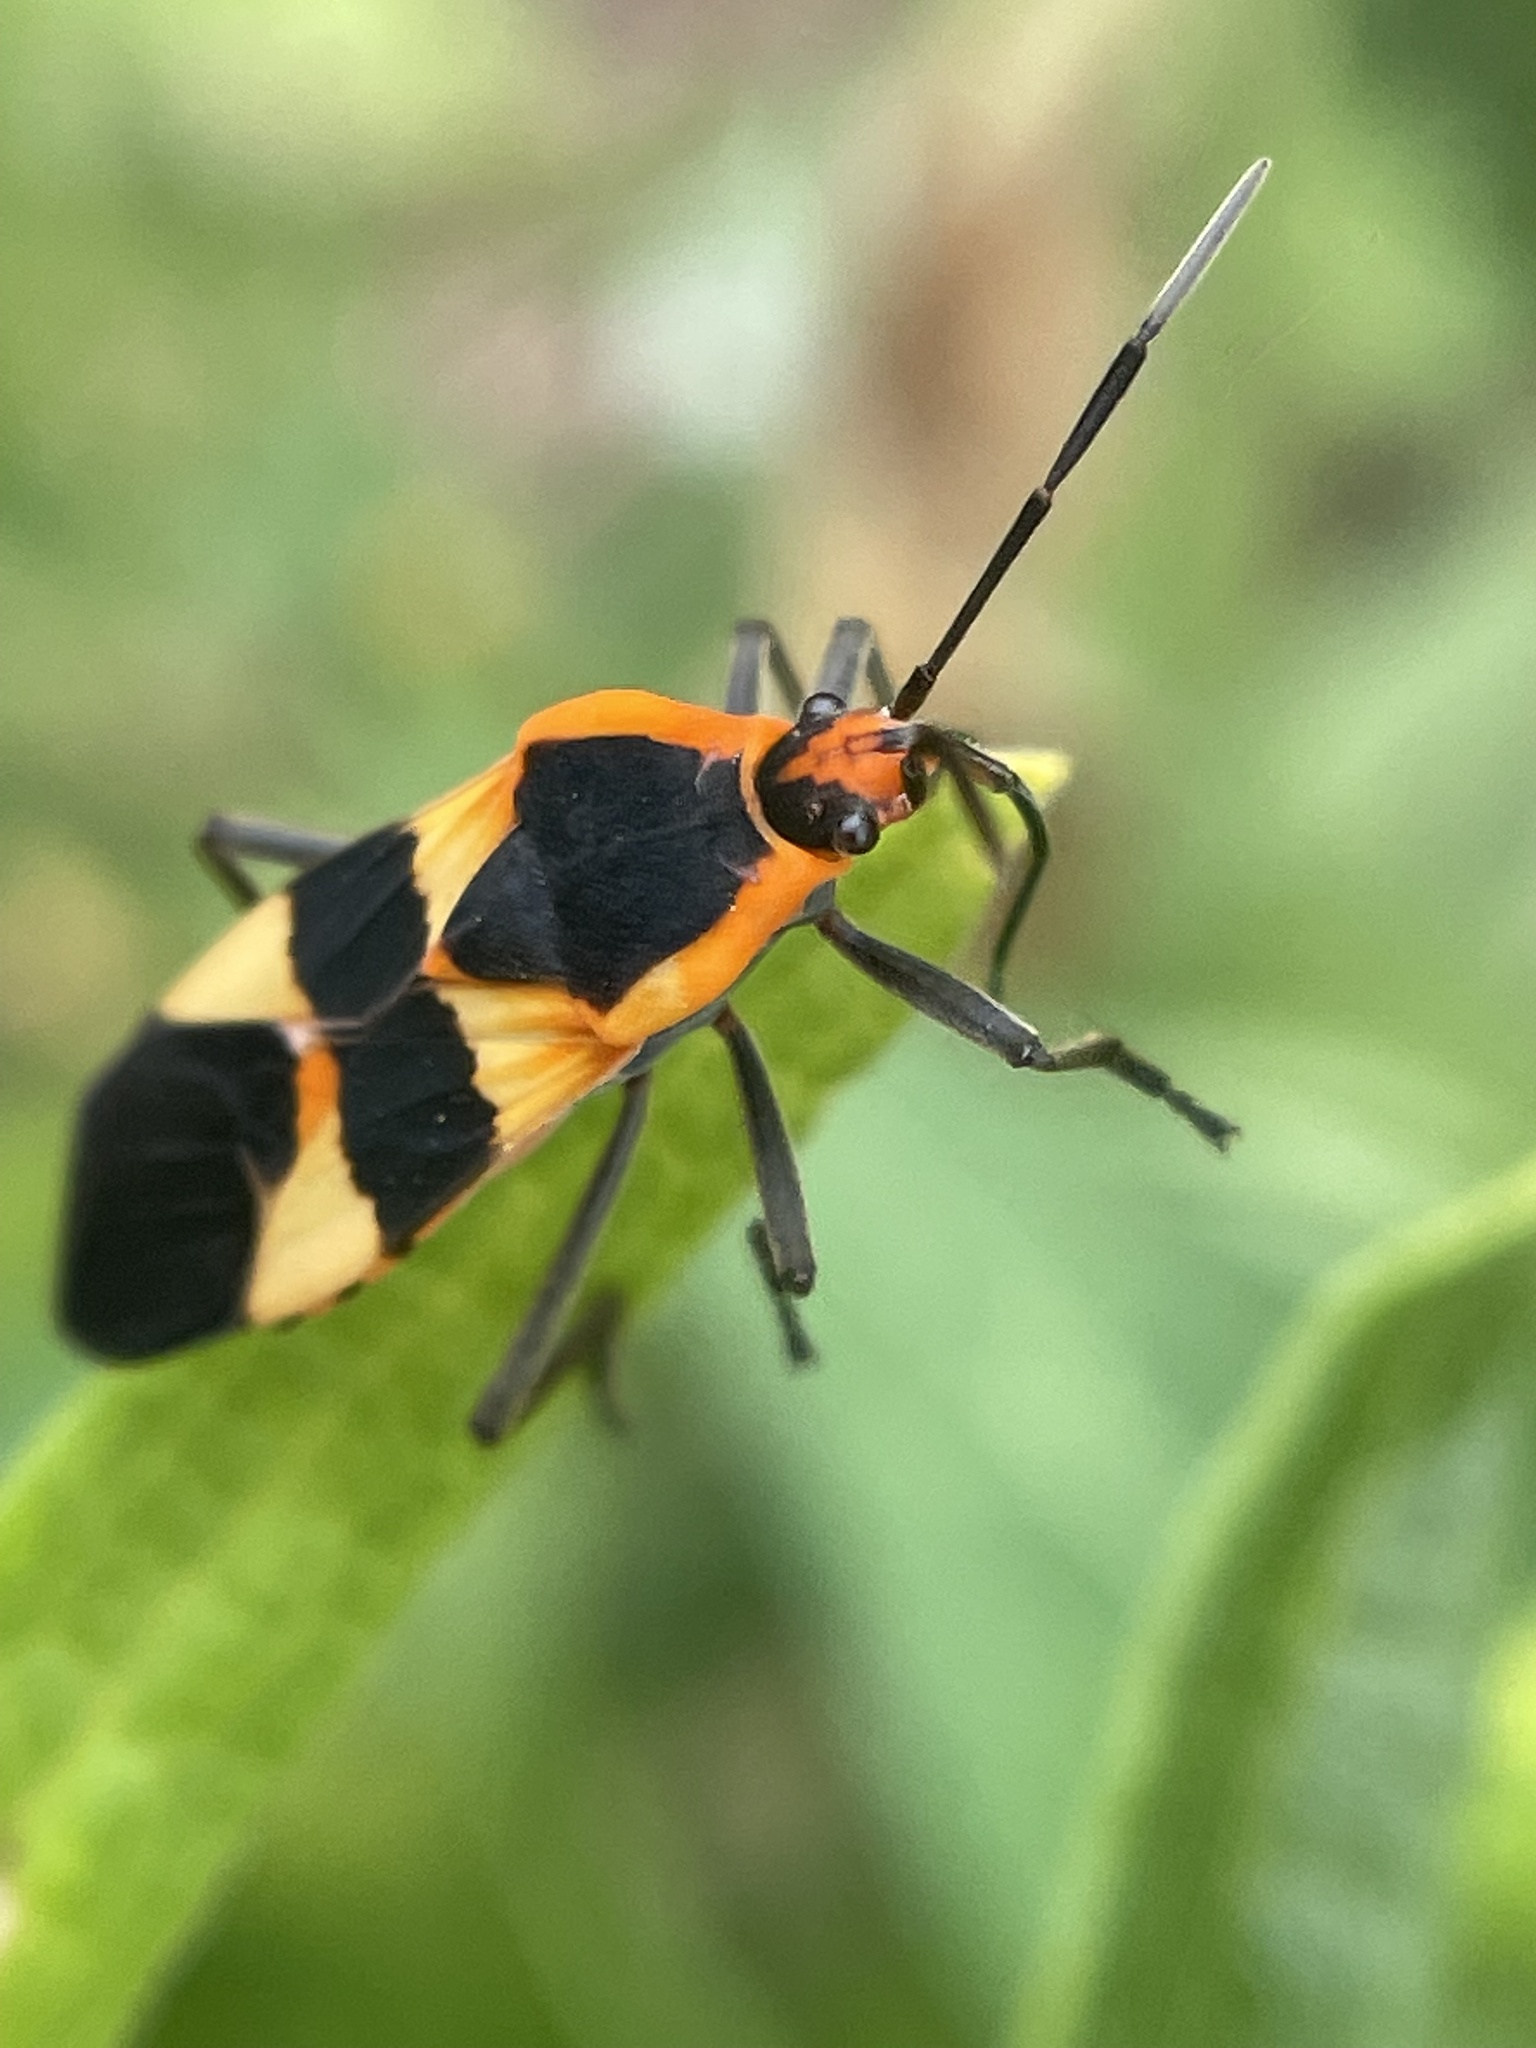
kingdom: Animalia
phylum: Arthropoda
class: Insecta
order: Hemiptera
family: Lygaeidae
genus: Oncopeltus
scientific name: Oncopeltus fasciatus
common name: Large milkweed bug
